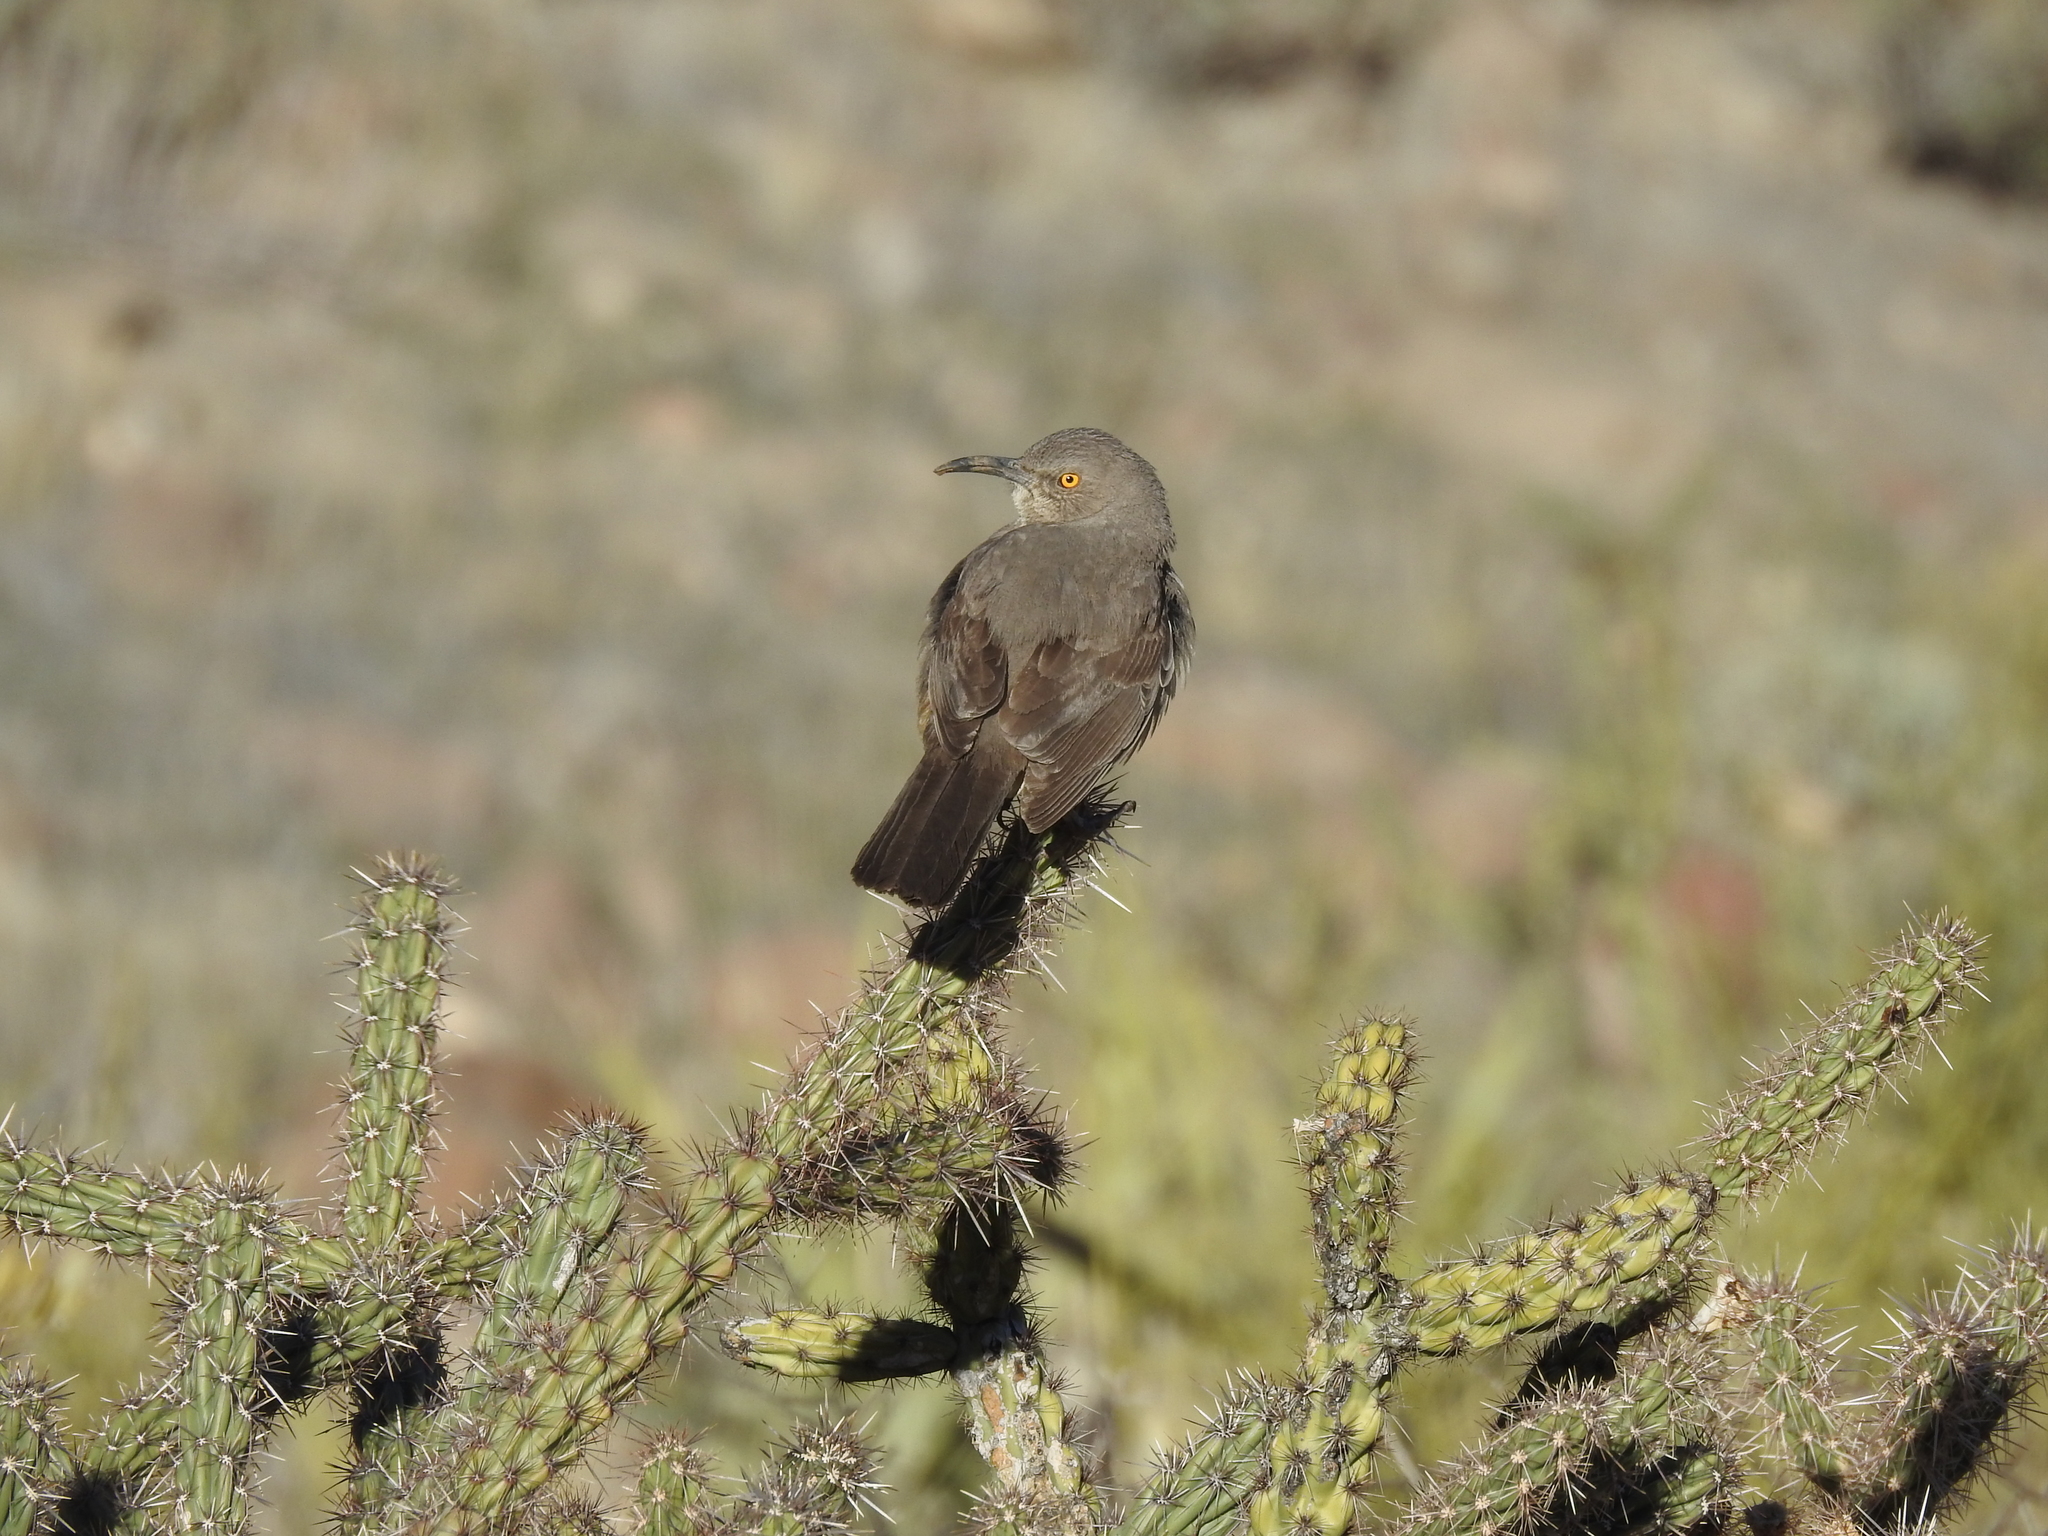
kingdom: Animalia
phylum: Chordata
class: Aves
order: Passeriformes
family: Mimidae
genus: Toxostoma
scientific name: Toxostoma curvirostre
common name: Curve-billed thrasher
